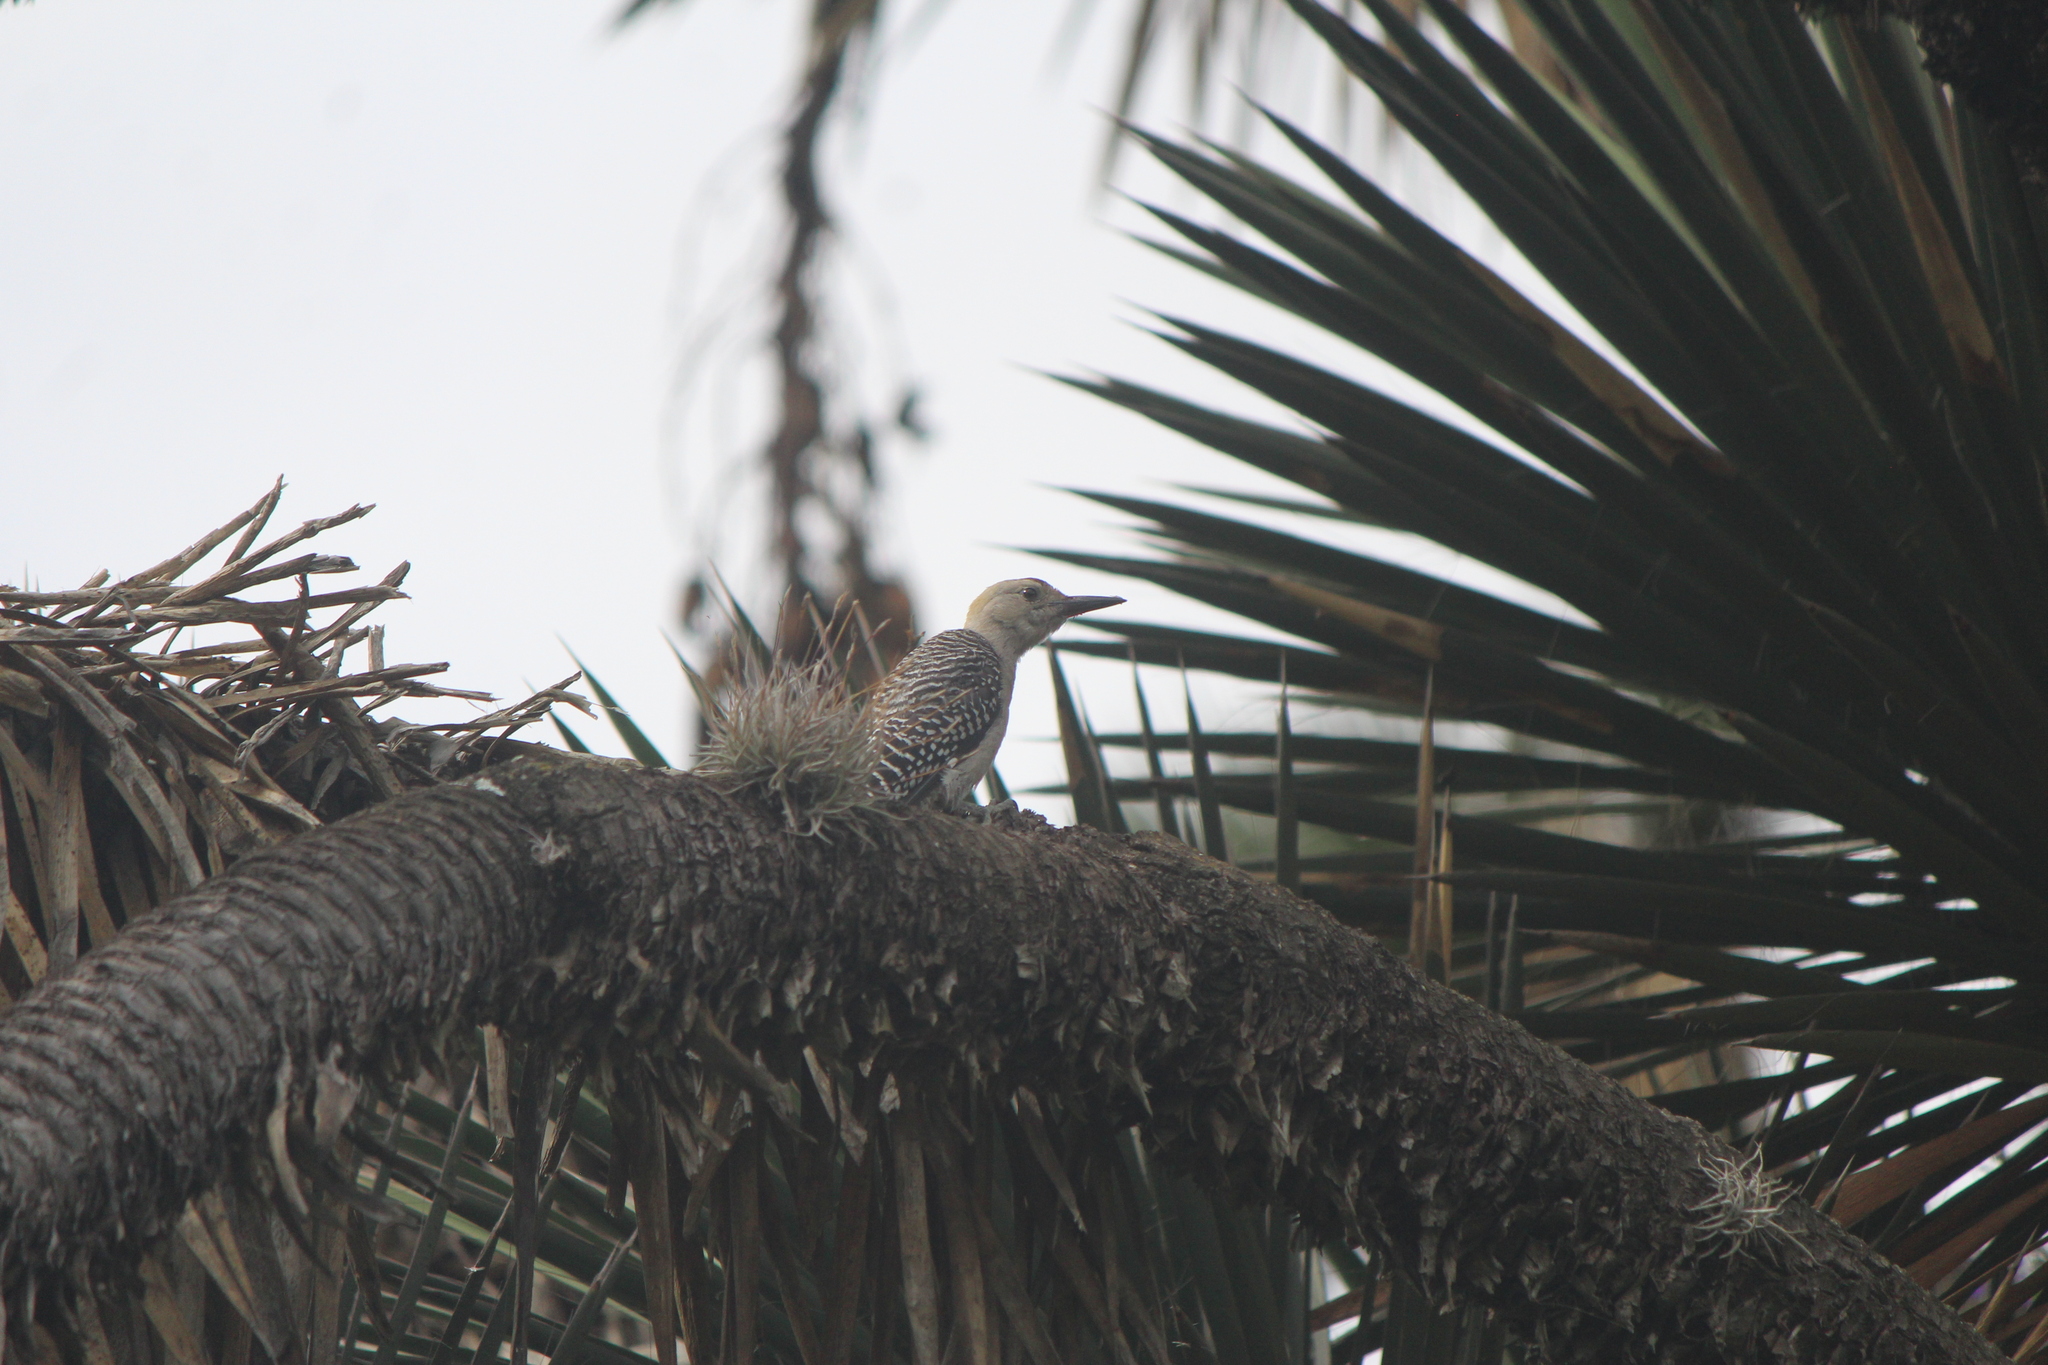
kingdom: Animalia
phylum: Chordata
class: Aves
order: Piciformes
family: Picidae
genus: Melanerpes
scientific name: Melanerpes aurifrons
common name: Golden-fronted woodpecker
